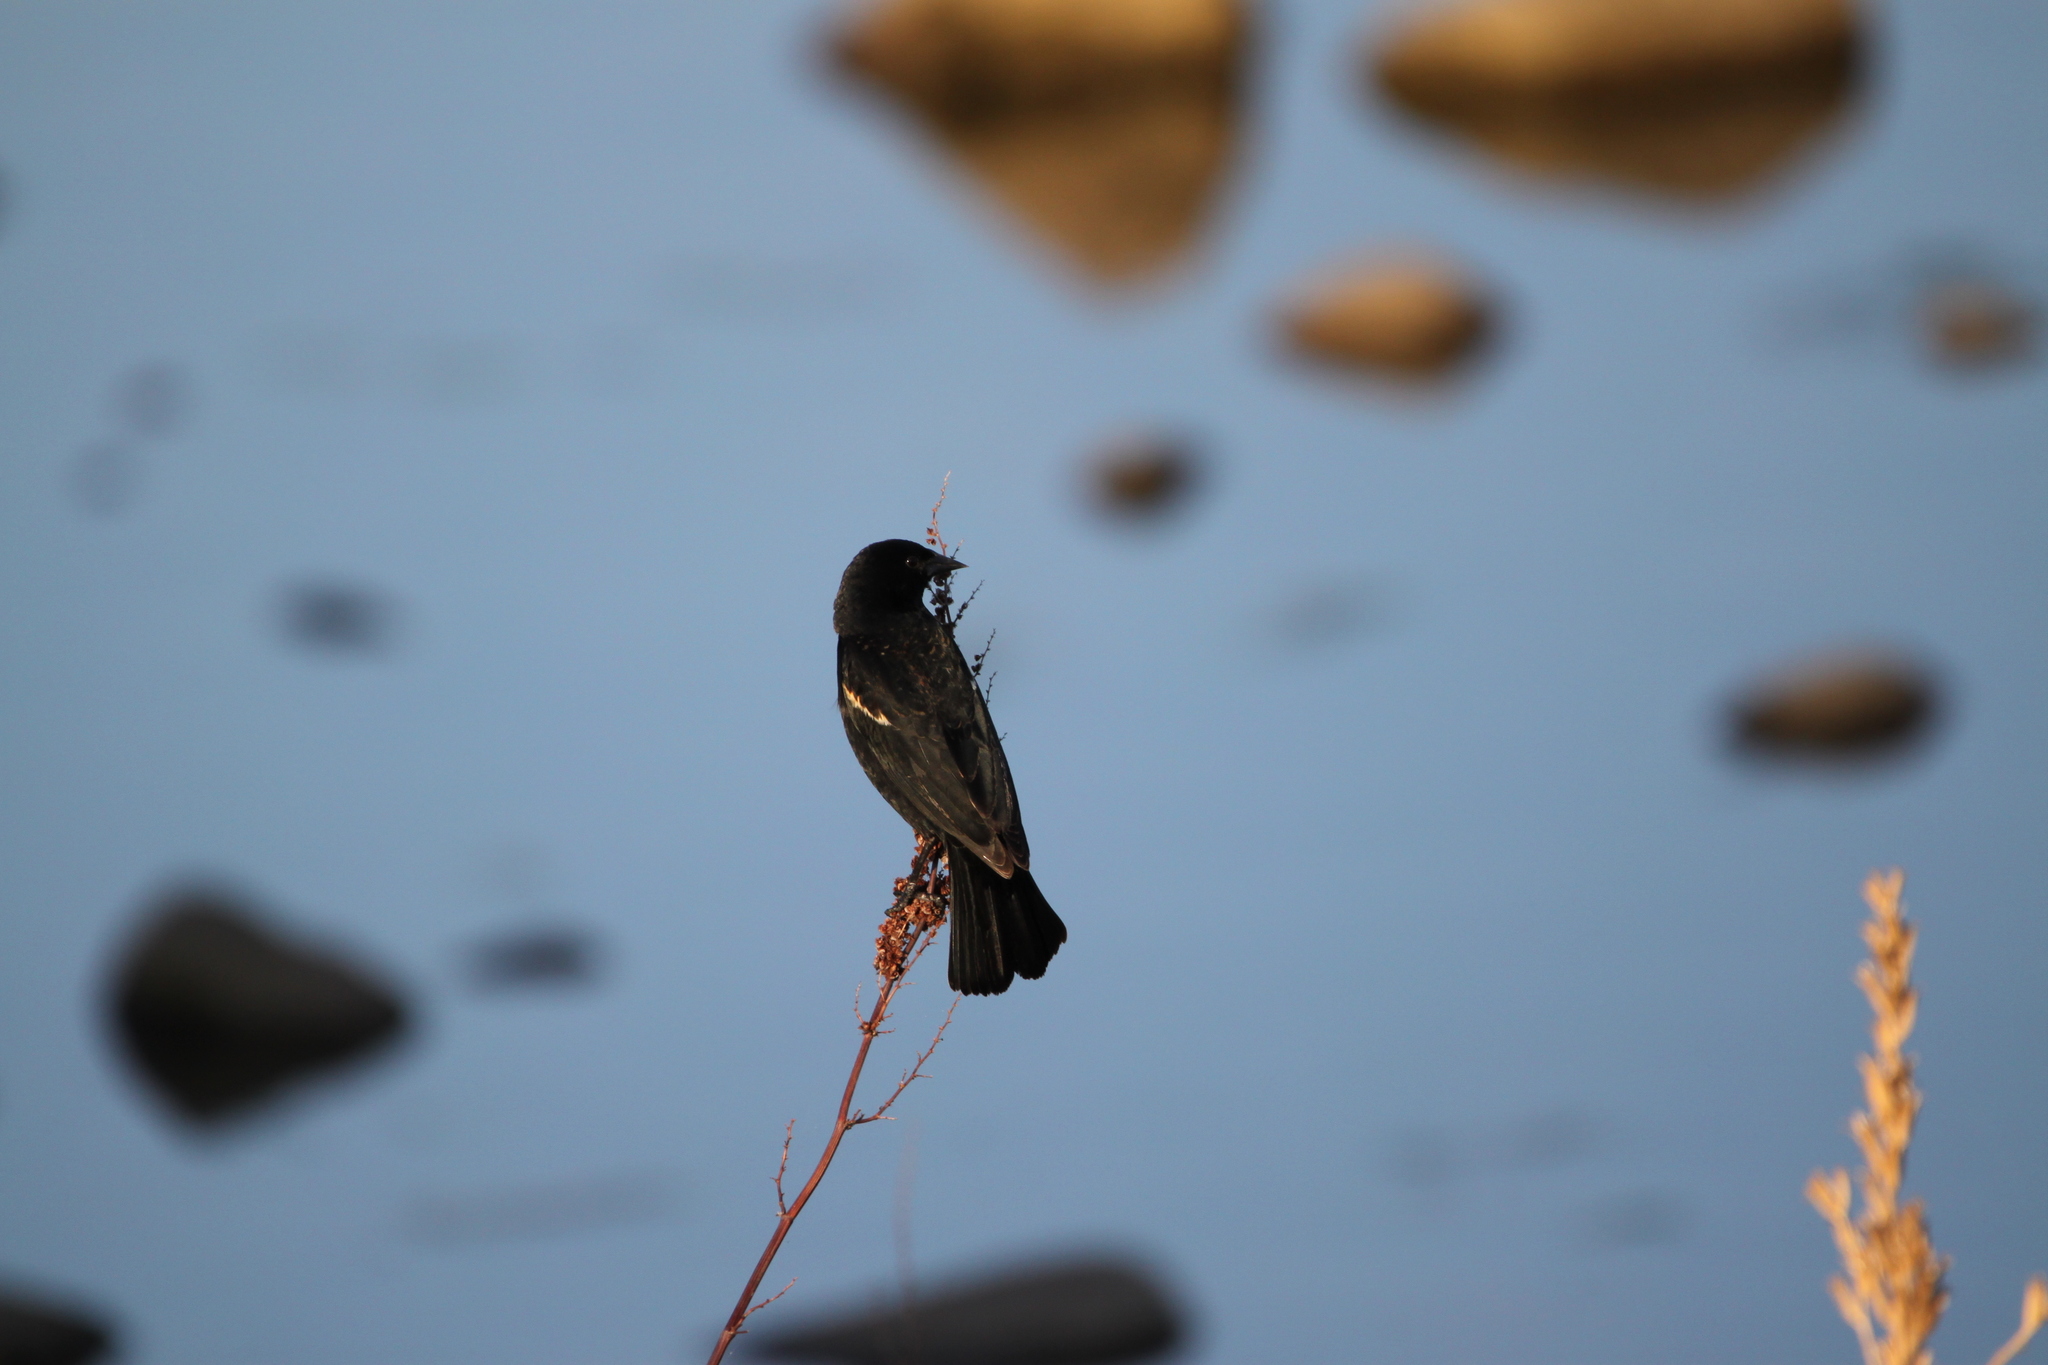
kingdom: Animalia
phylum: Chordata
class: Aves
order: Passeriformes
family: Icteridae
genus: Agelaius
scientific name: Agelaius phoeniceus
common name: Red-winged blackbird
